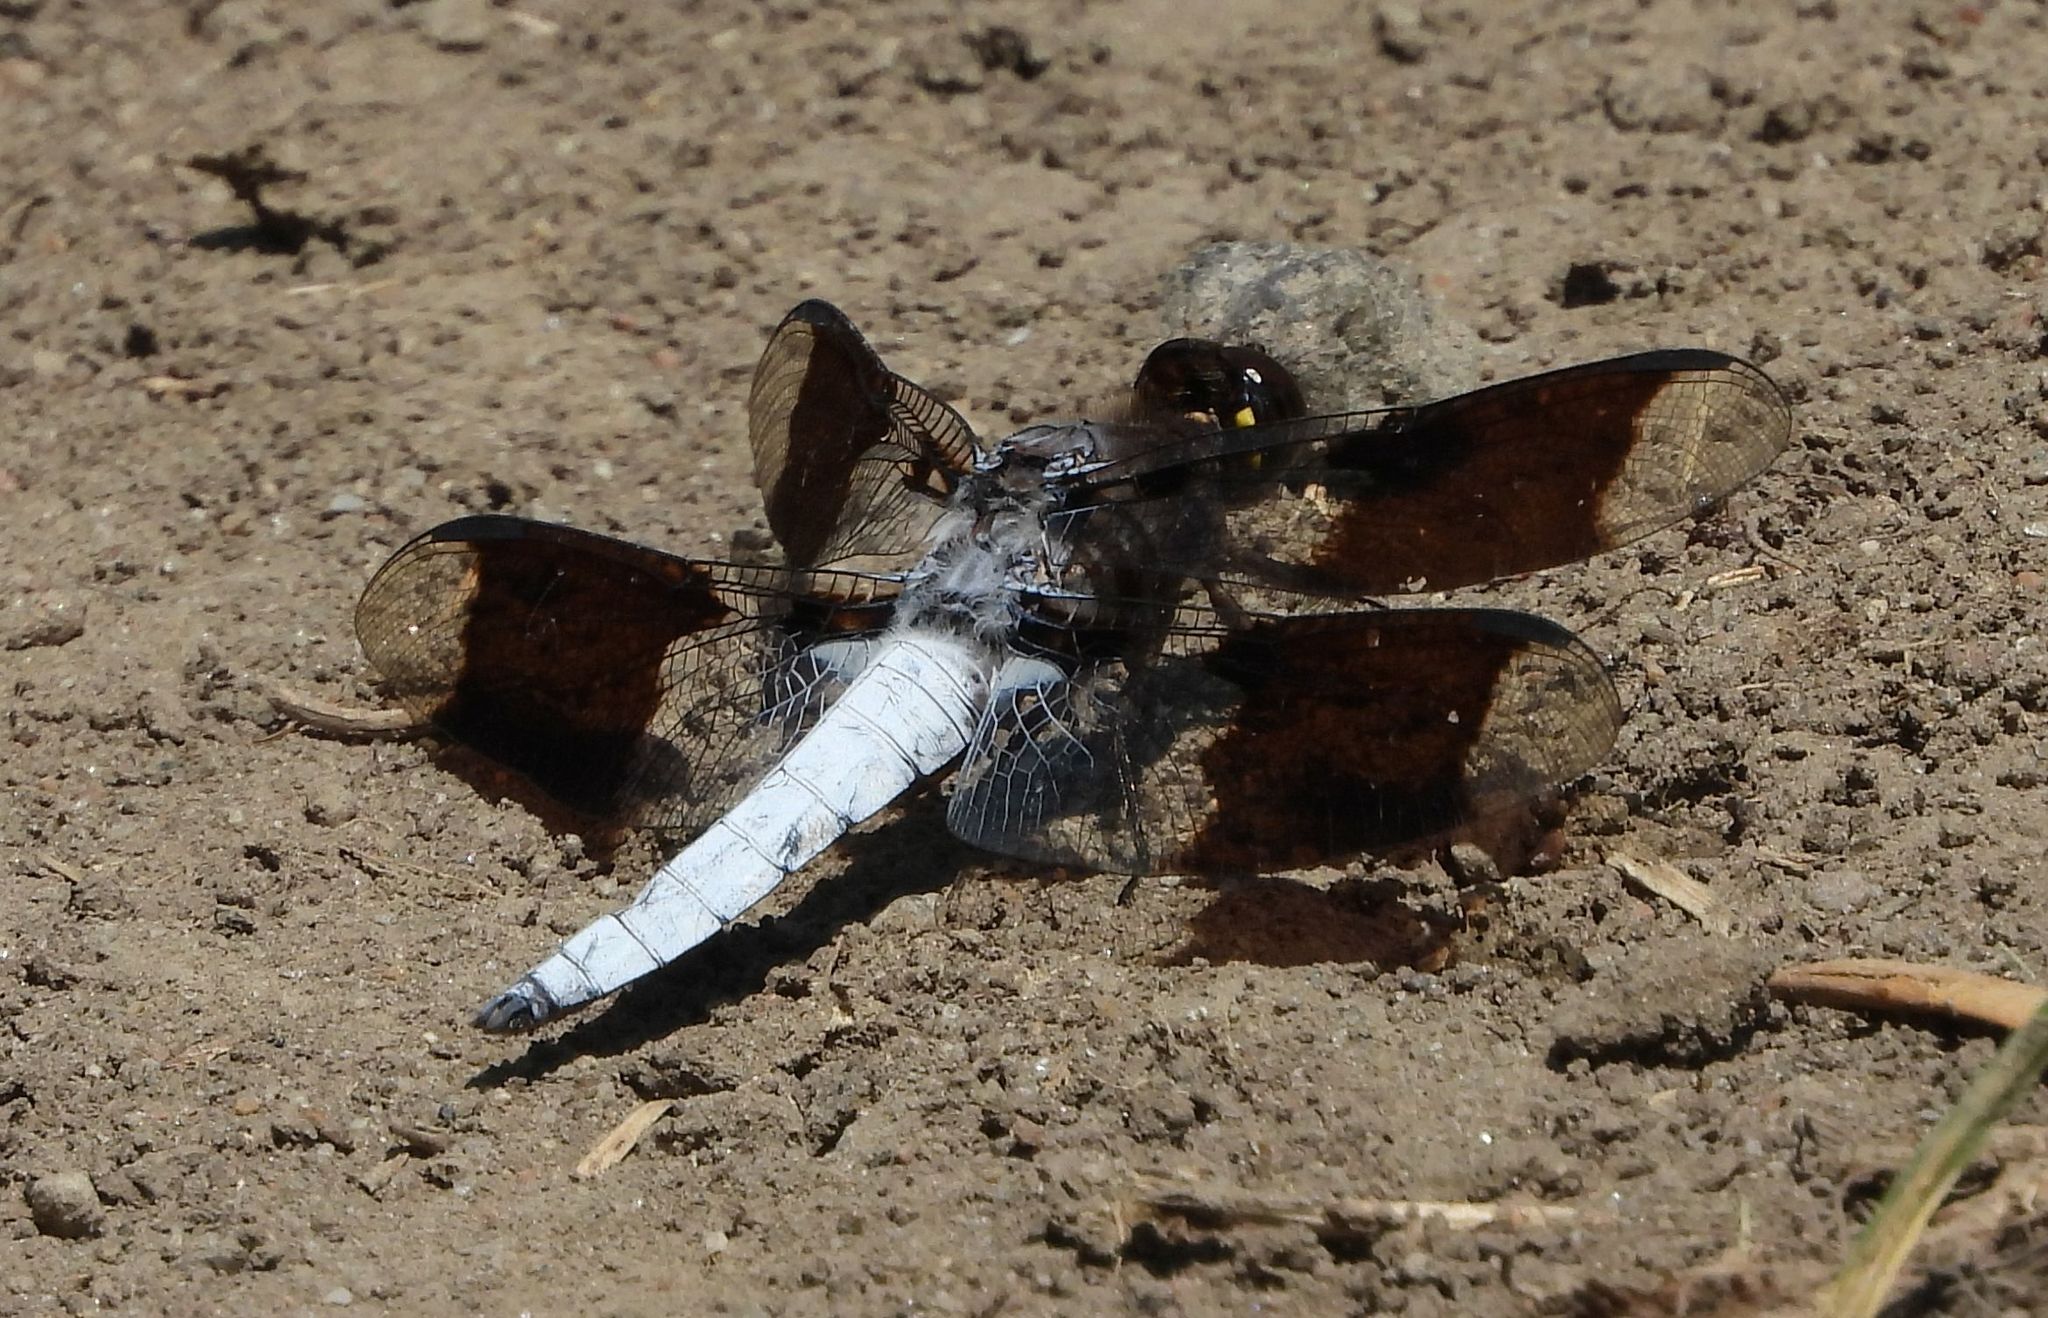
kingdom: Animalia
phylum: Arthropoda
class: Insecta
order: Odonata
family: Libellulidae
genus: Plathemis
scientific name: Plathemis lydia
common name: Common whitetail
